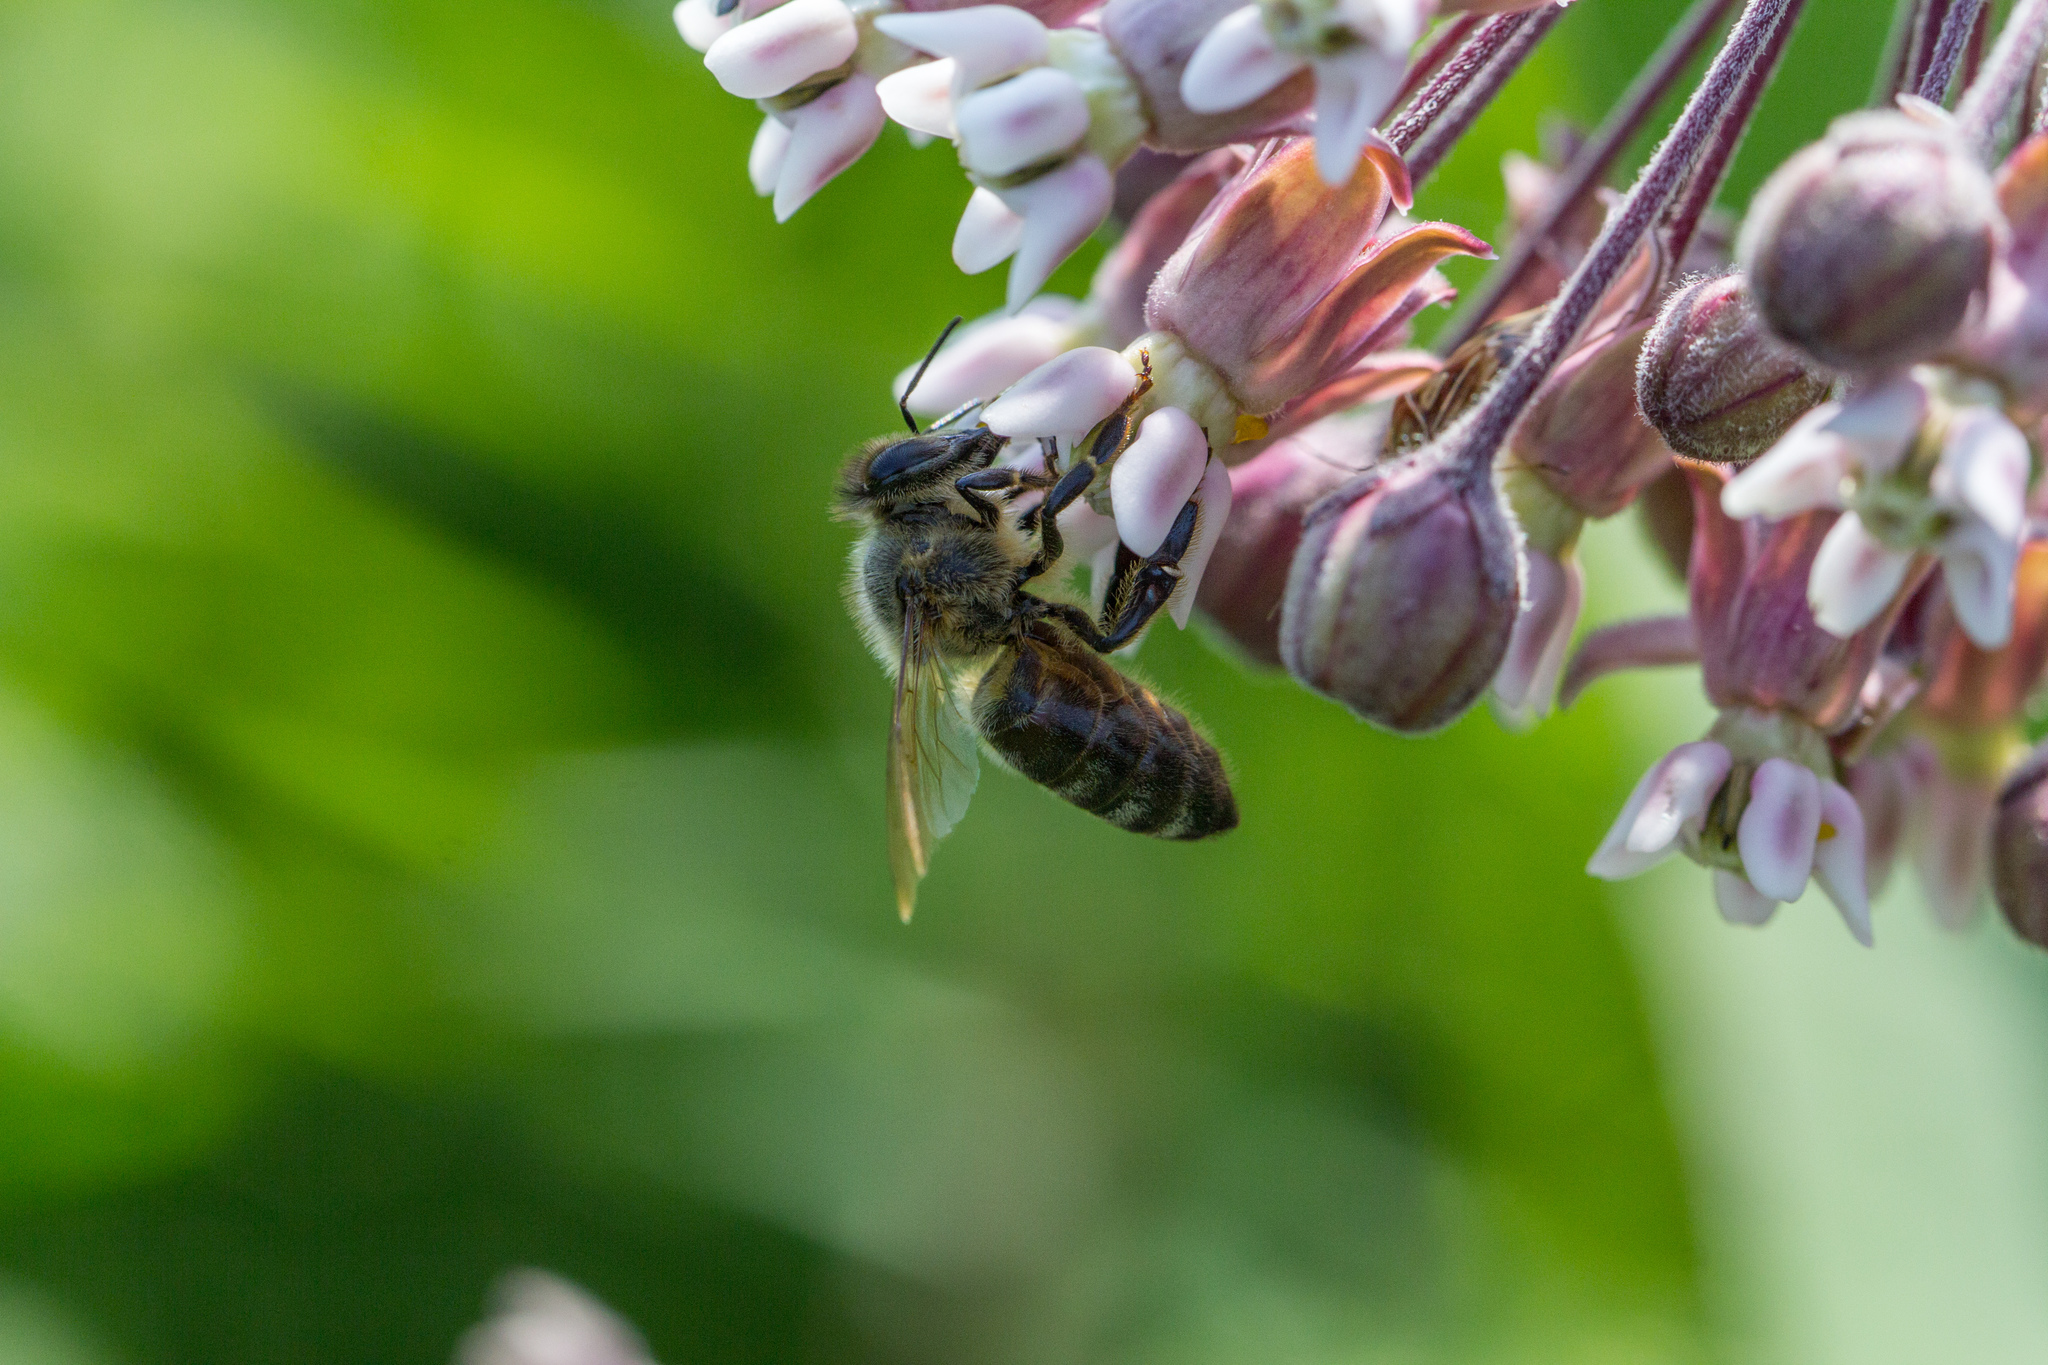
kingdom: Animalia
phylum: Arthropoda
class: Insecta
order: Hymenoptera
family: Apidae
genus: Apis
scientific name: Apis mellifera
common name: Honey bee
